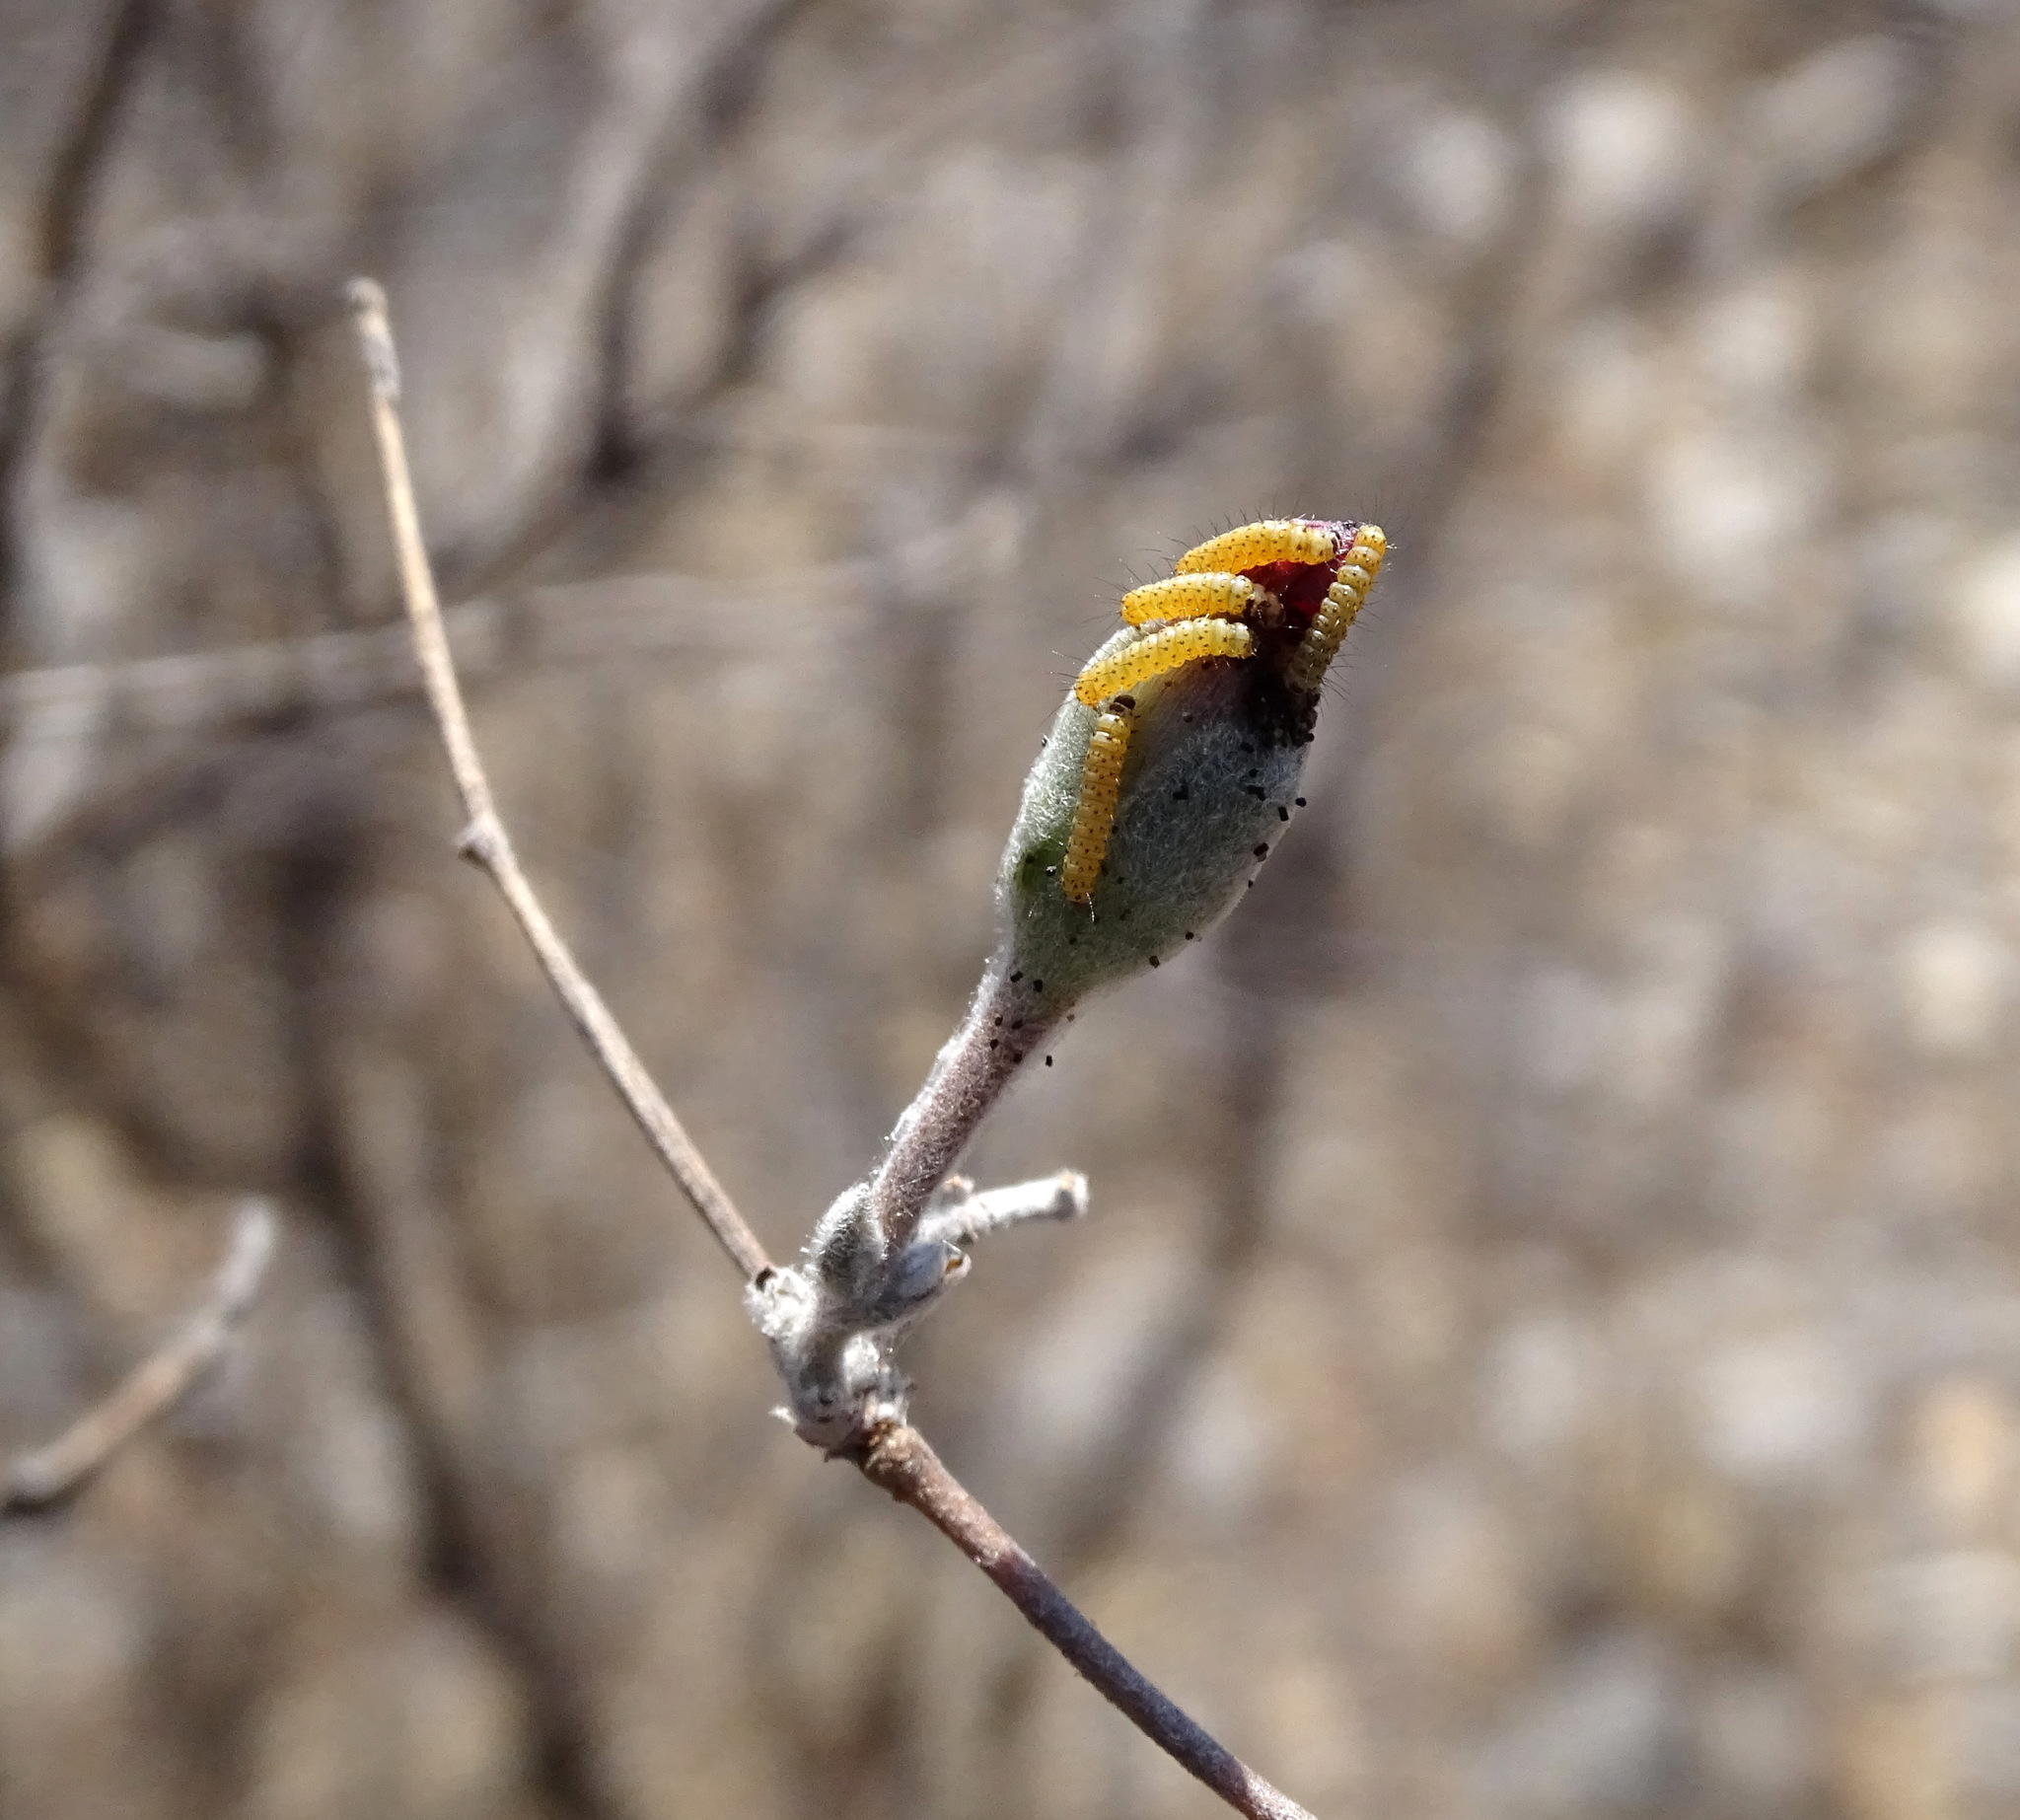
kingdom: Plantae
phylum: Tracheophyta
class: Magnoliopsida
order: Solanales
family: Convolvulaceae
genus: Ipomoea
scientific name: Ipomoea conzattii
